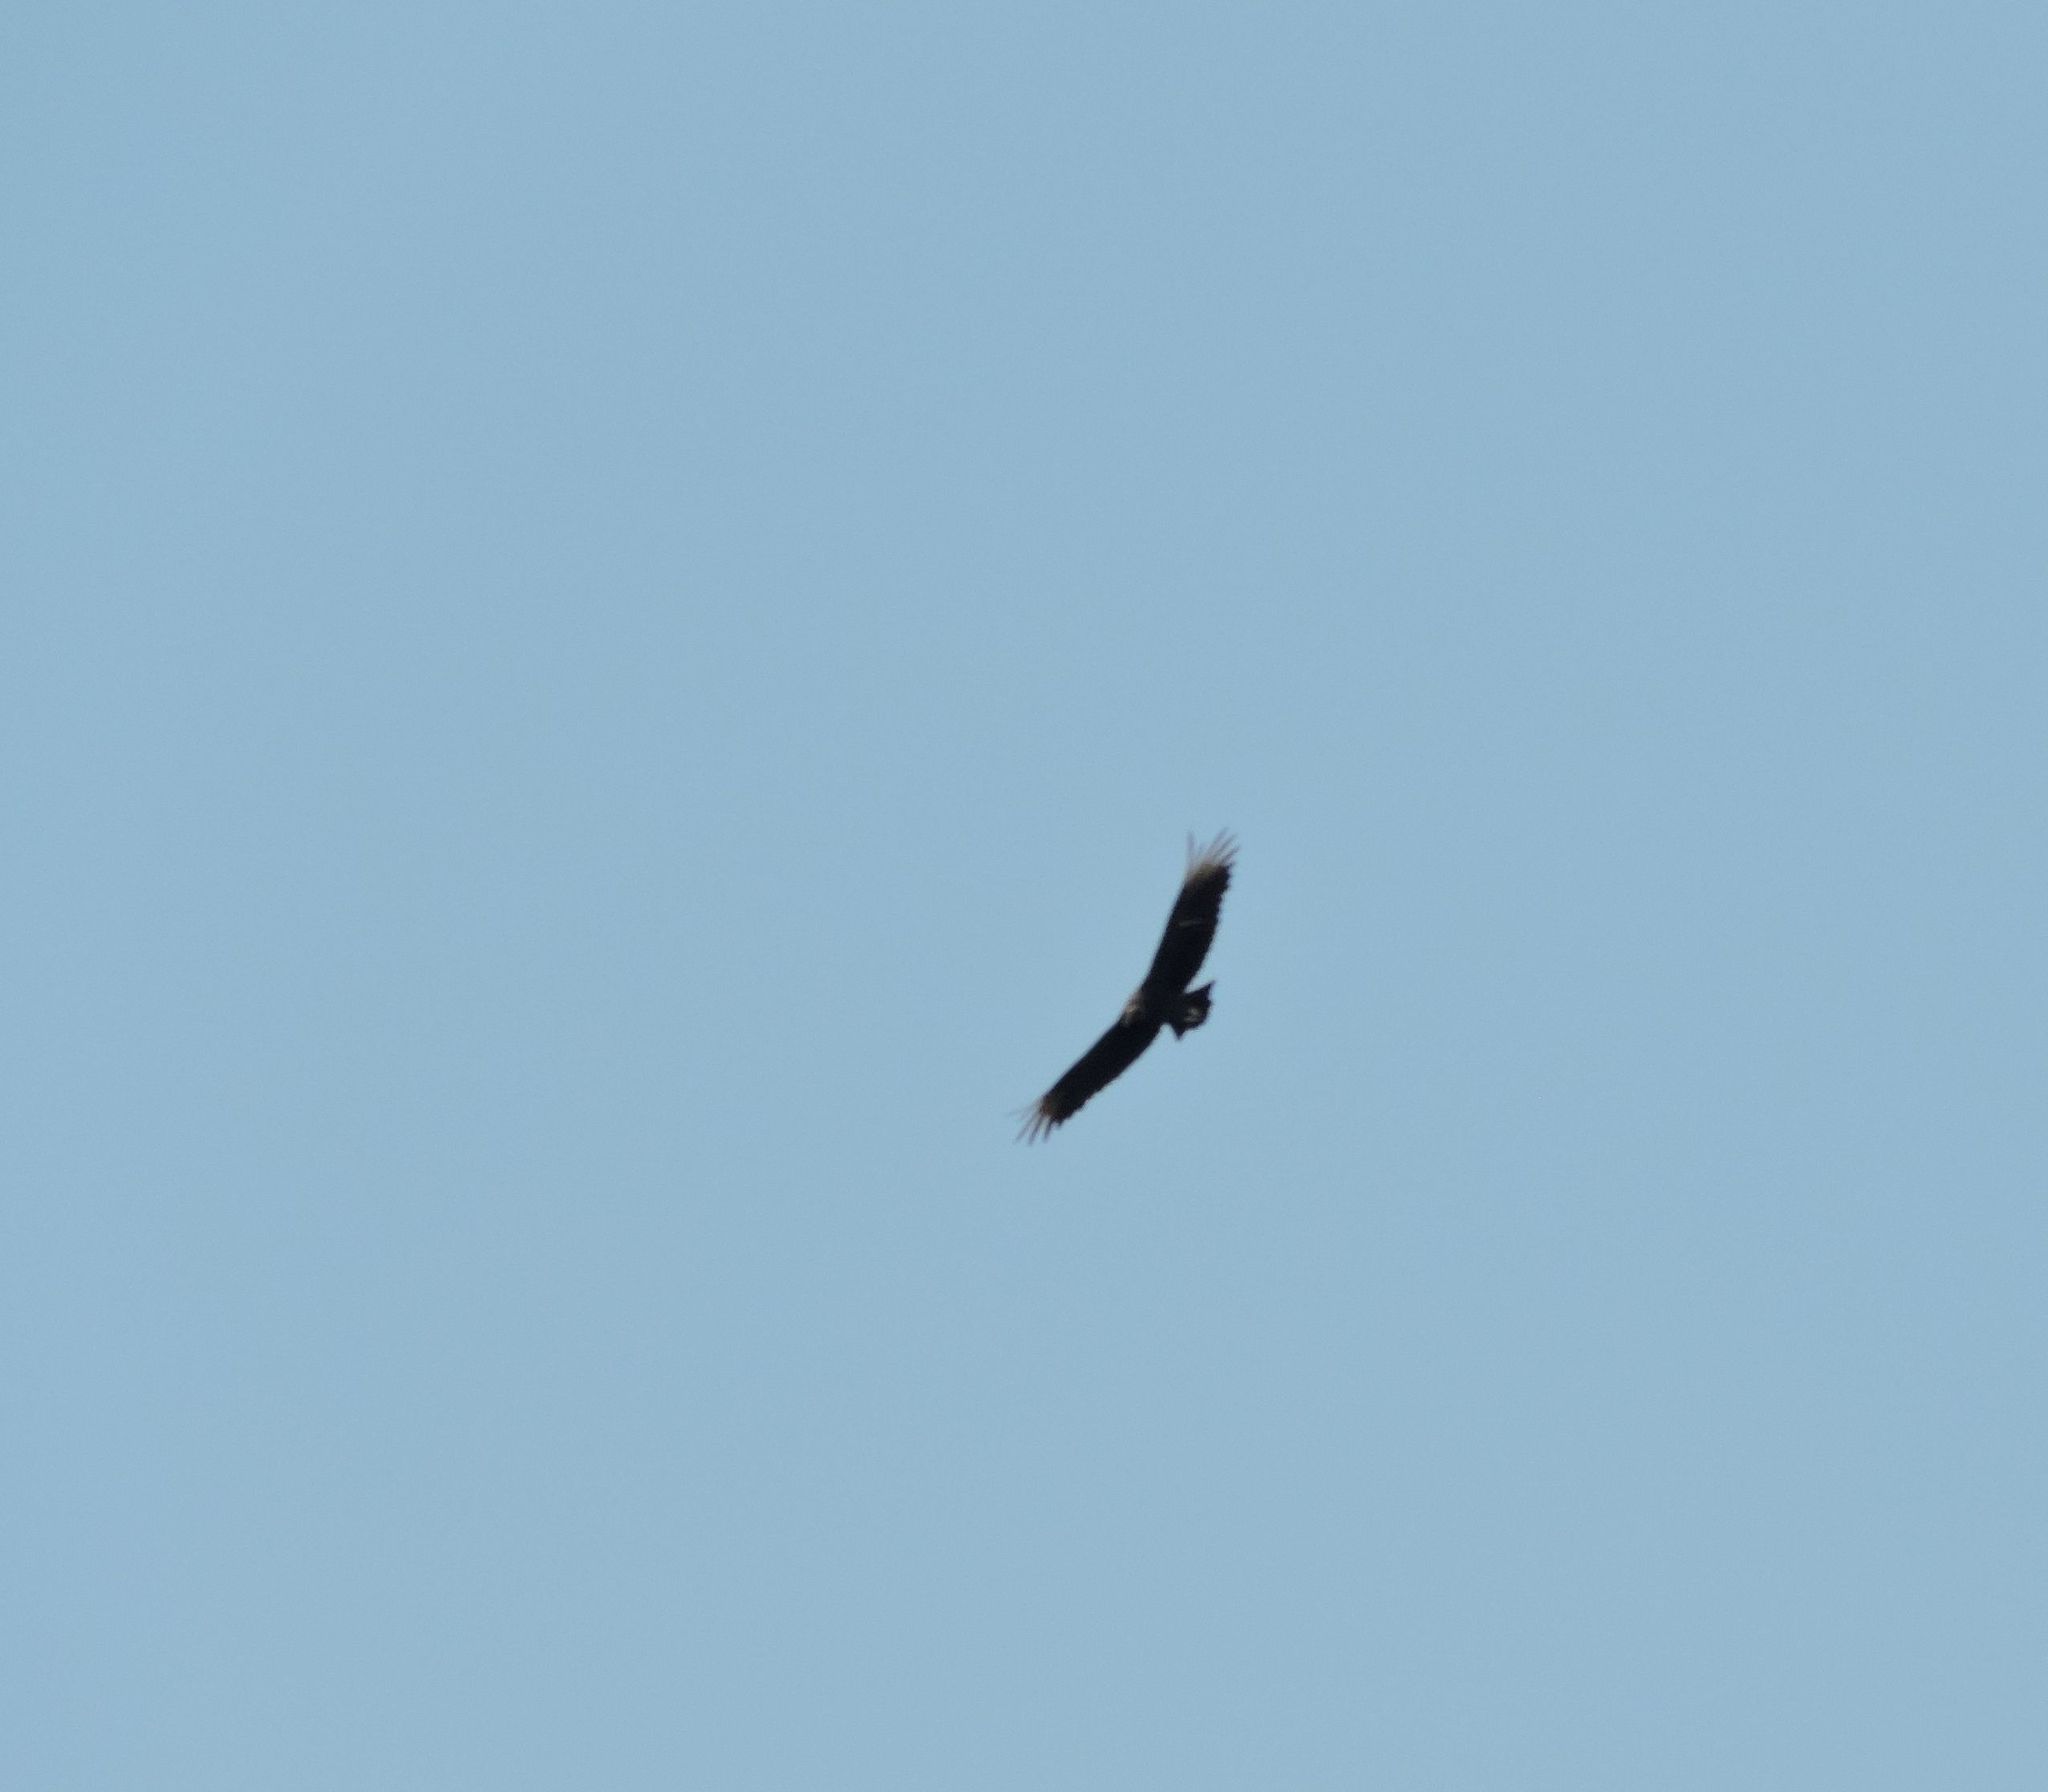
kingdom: Animalia
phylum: Chordata
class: Aves
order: Accipitriformes
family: Cathartidae
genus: Coragyps
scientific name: Coragyps atratus
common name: Black vulture
